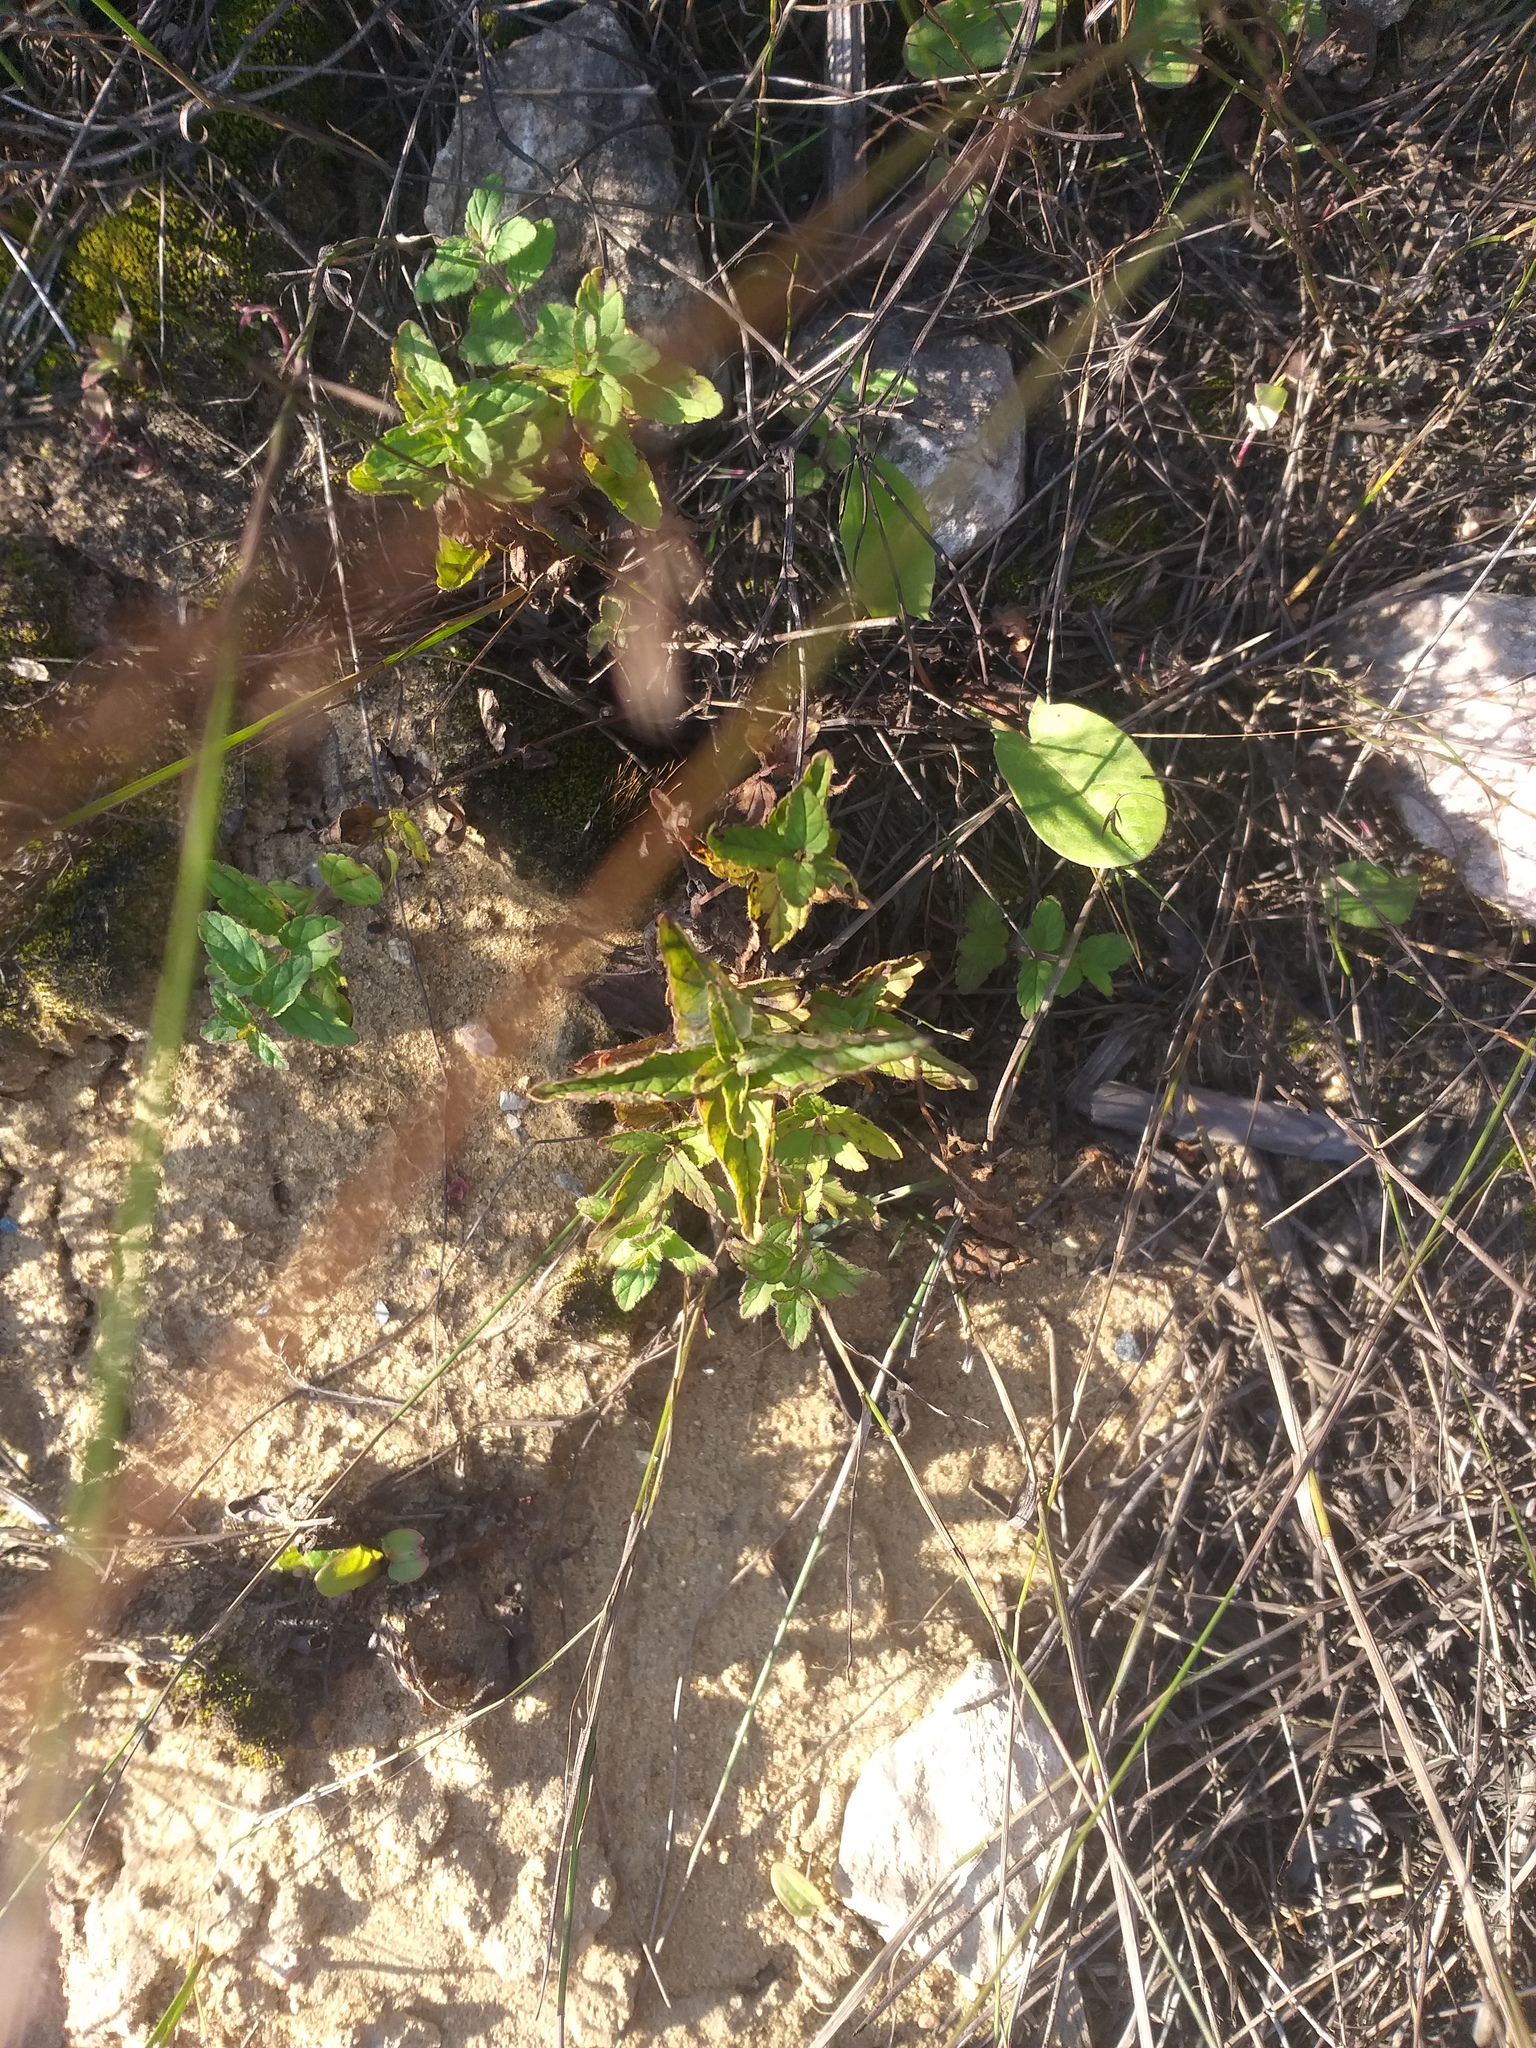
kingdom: Plantae
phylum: Tracheophyta
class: Magnoliopsida
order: Lamiales
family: Plantaginaceae
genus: Veronica
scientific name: Veronica chamaedrys
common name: Germander speedwell
